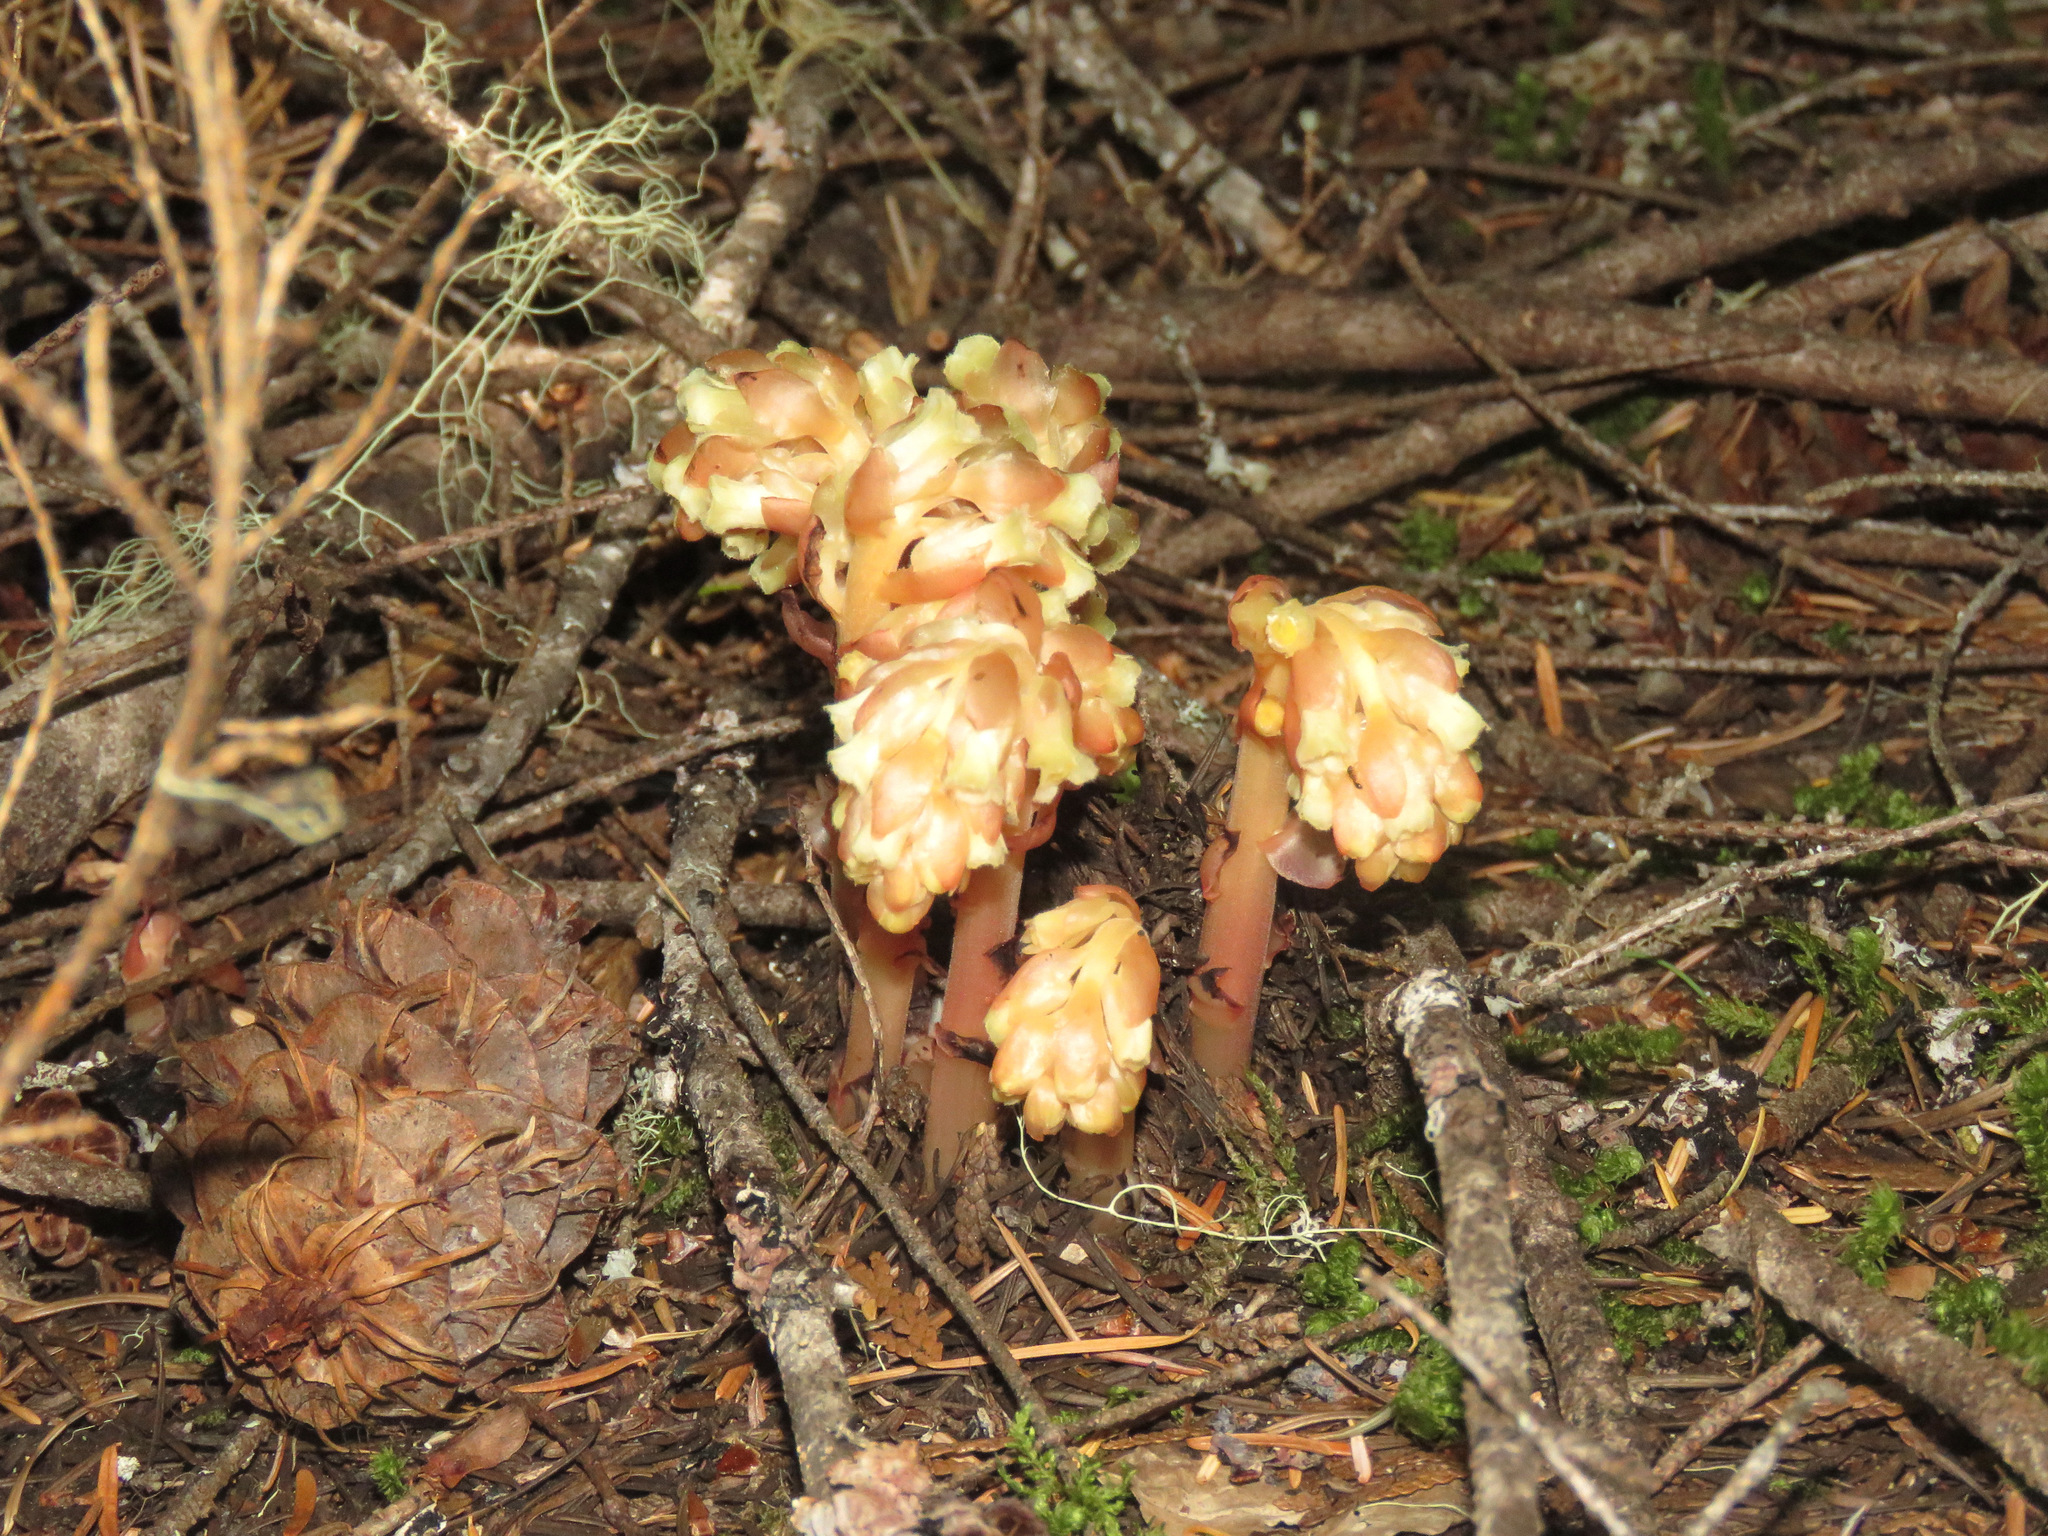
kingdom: Plantae
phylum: Tracheophyta
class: Magnoliopsida
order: Ericales
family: Ericaceae
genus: Hypopitys
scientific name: Hypopitys monotropa
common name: Yellow bird's-nest
